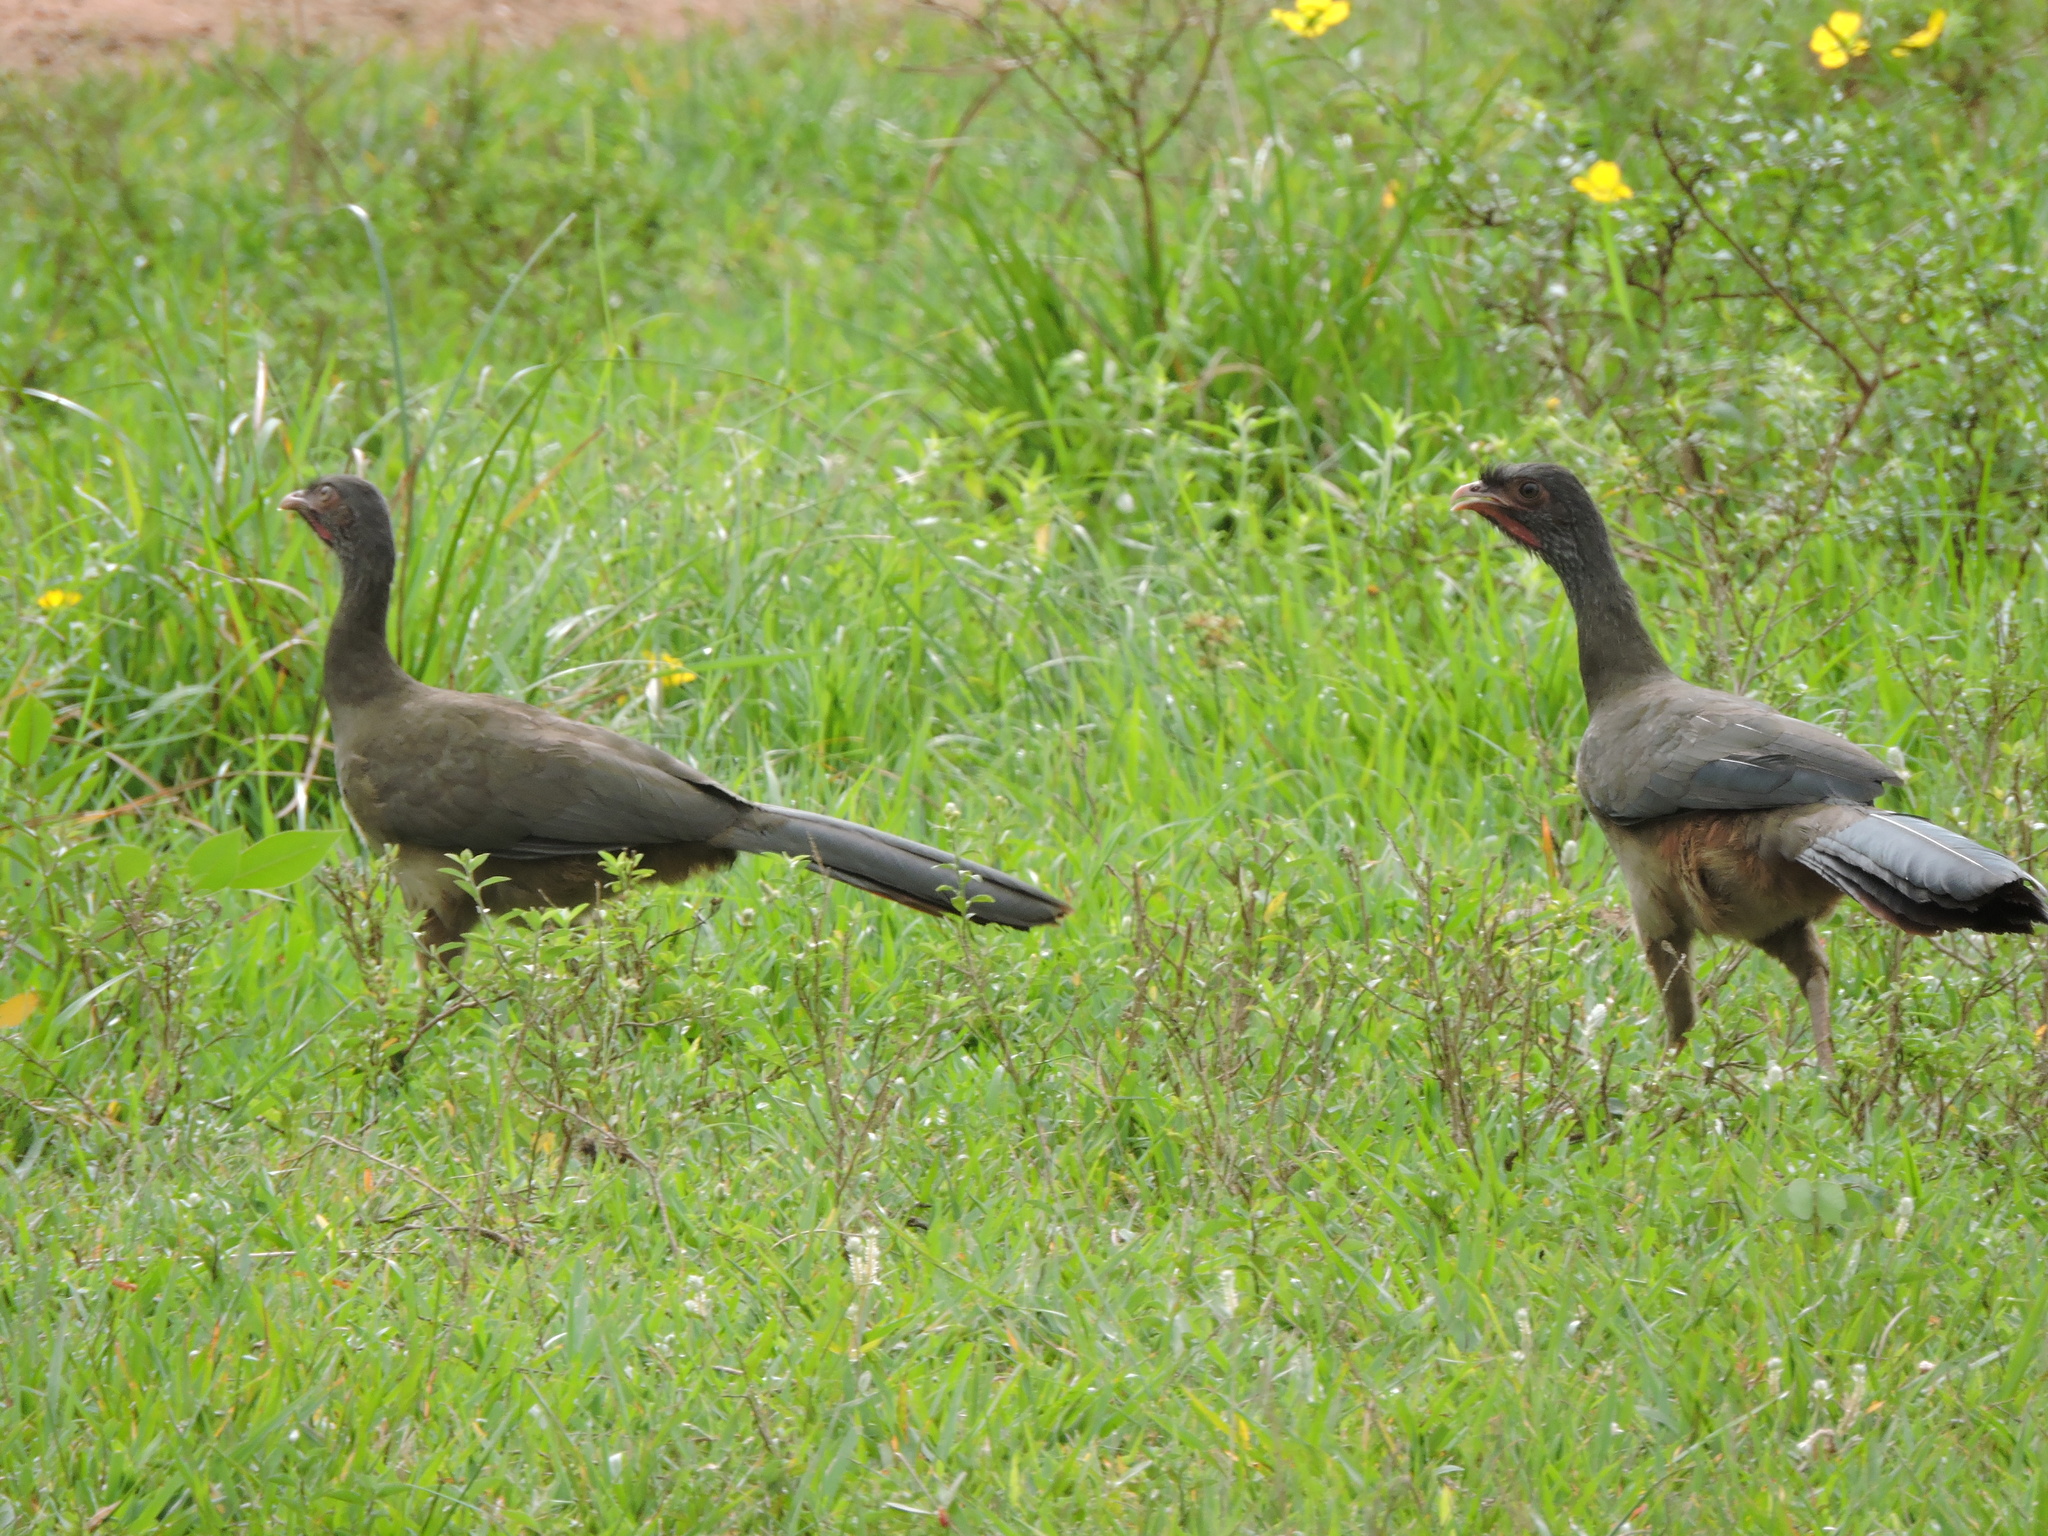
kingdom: Animalia
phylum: Chordata
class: Aves
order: Galliformes
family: Cracidae
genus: Ortalis
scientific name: Ortalis canicollis
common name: Chaco chachalaca
